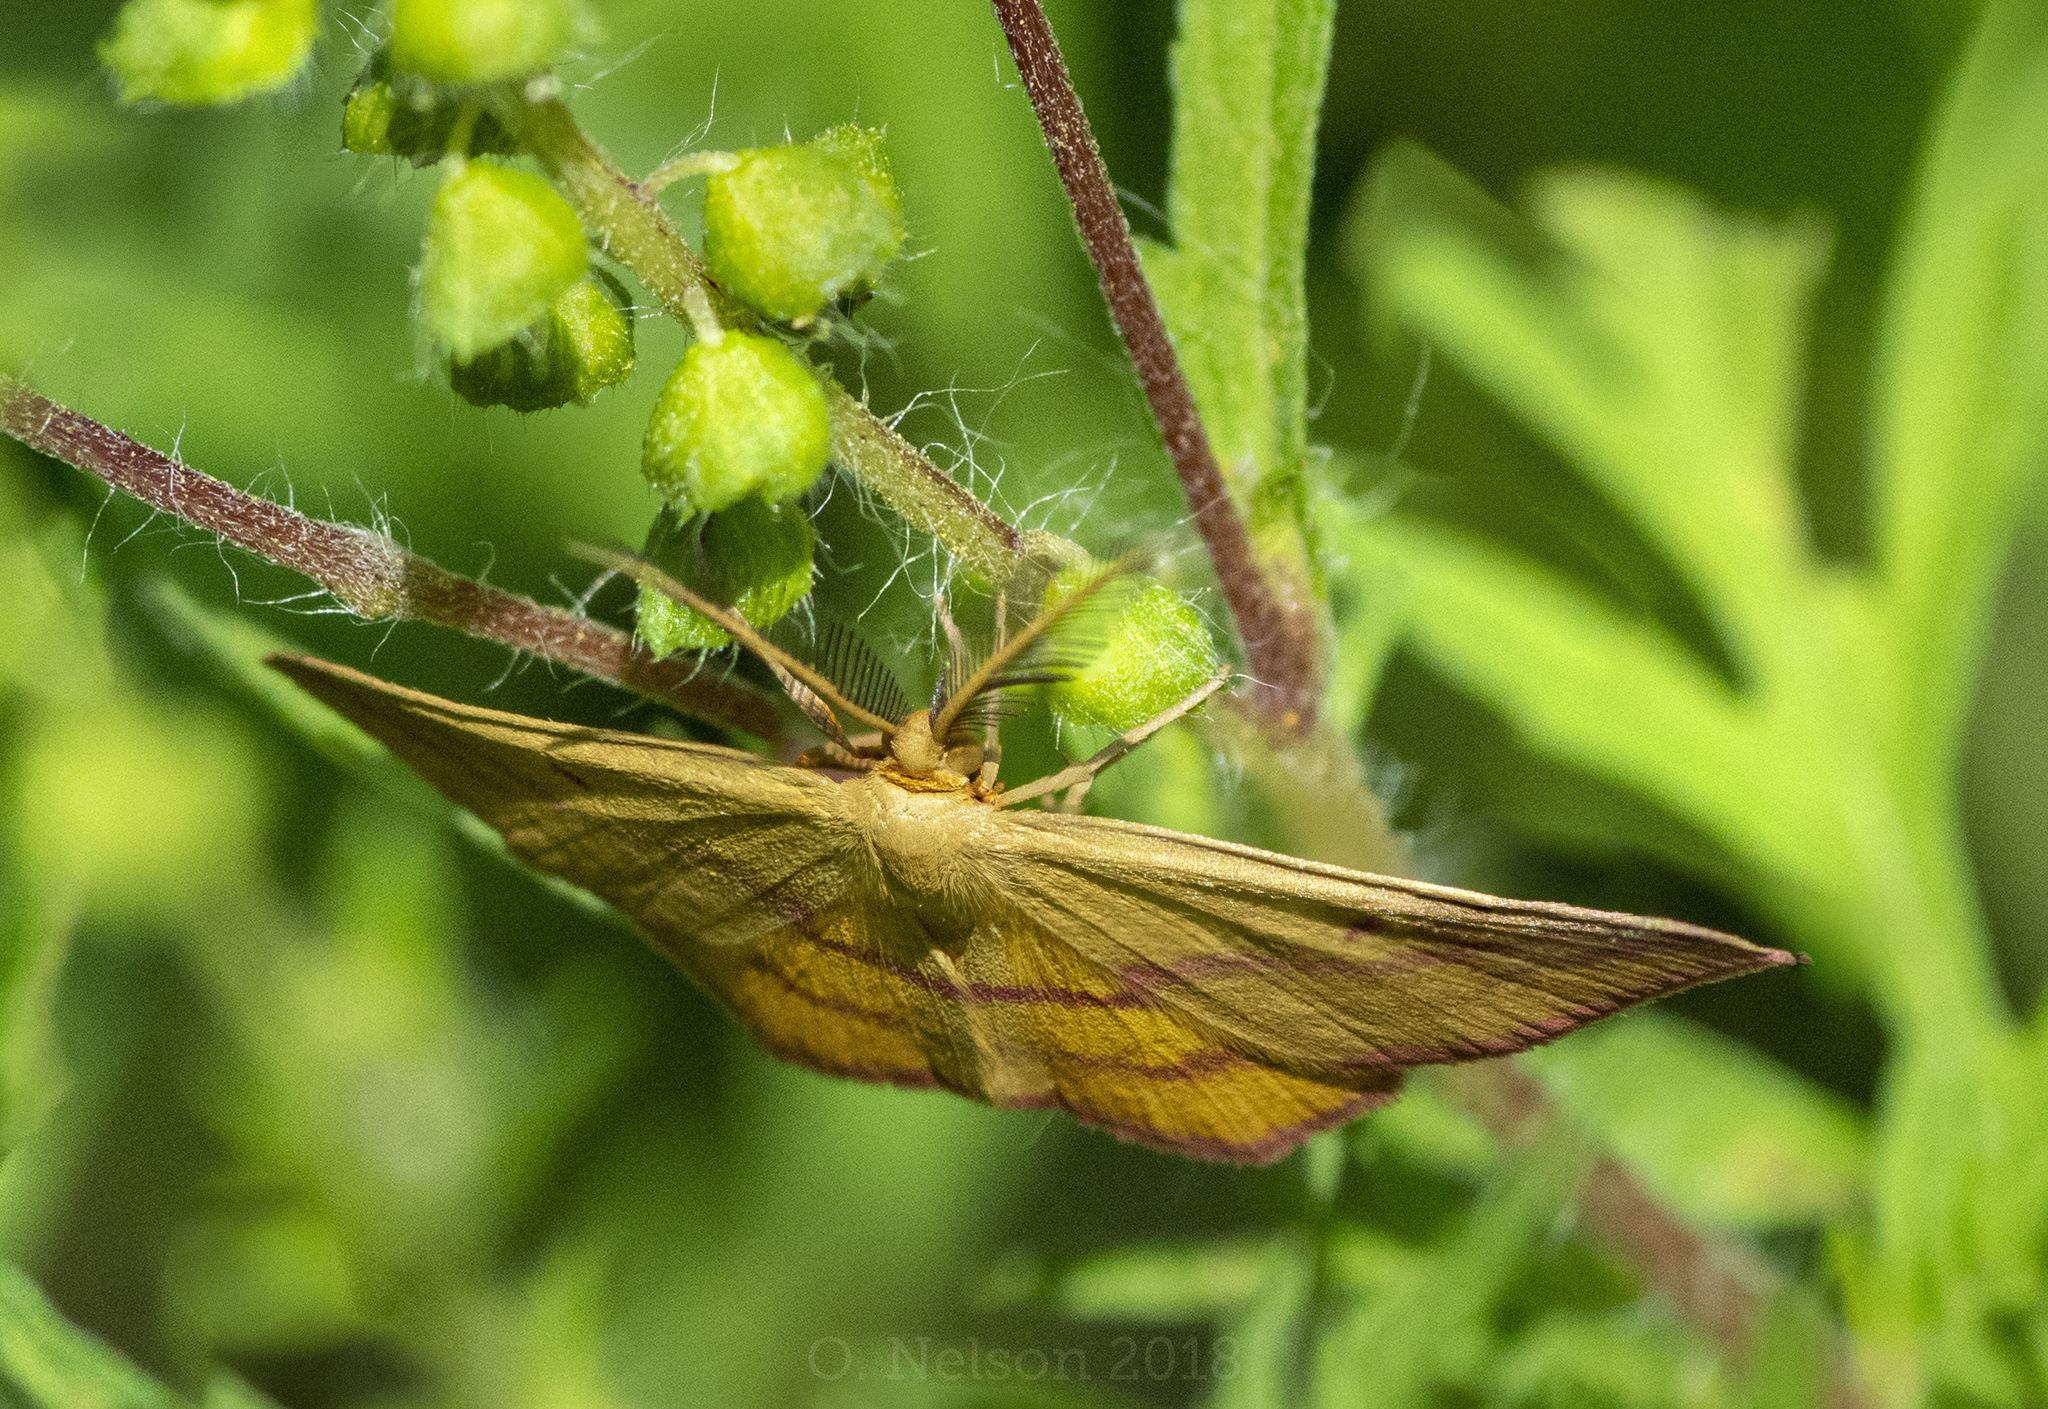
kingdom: Animalia
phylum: Arthropoda
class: Insecta
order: Lepidoptera
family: Geometridae
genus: Haematopis
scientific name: Haematopis grataria
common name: Chickweed geometer
